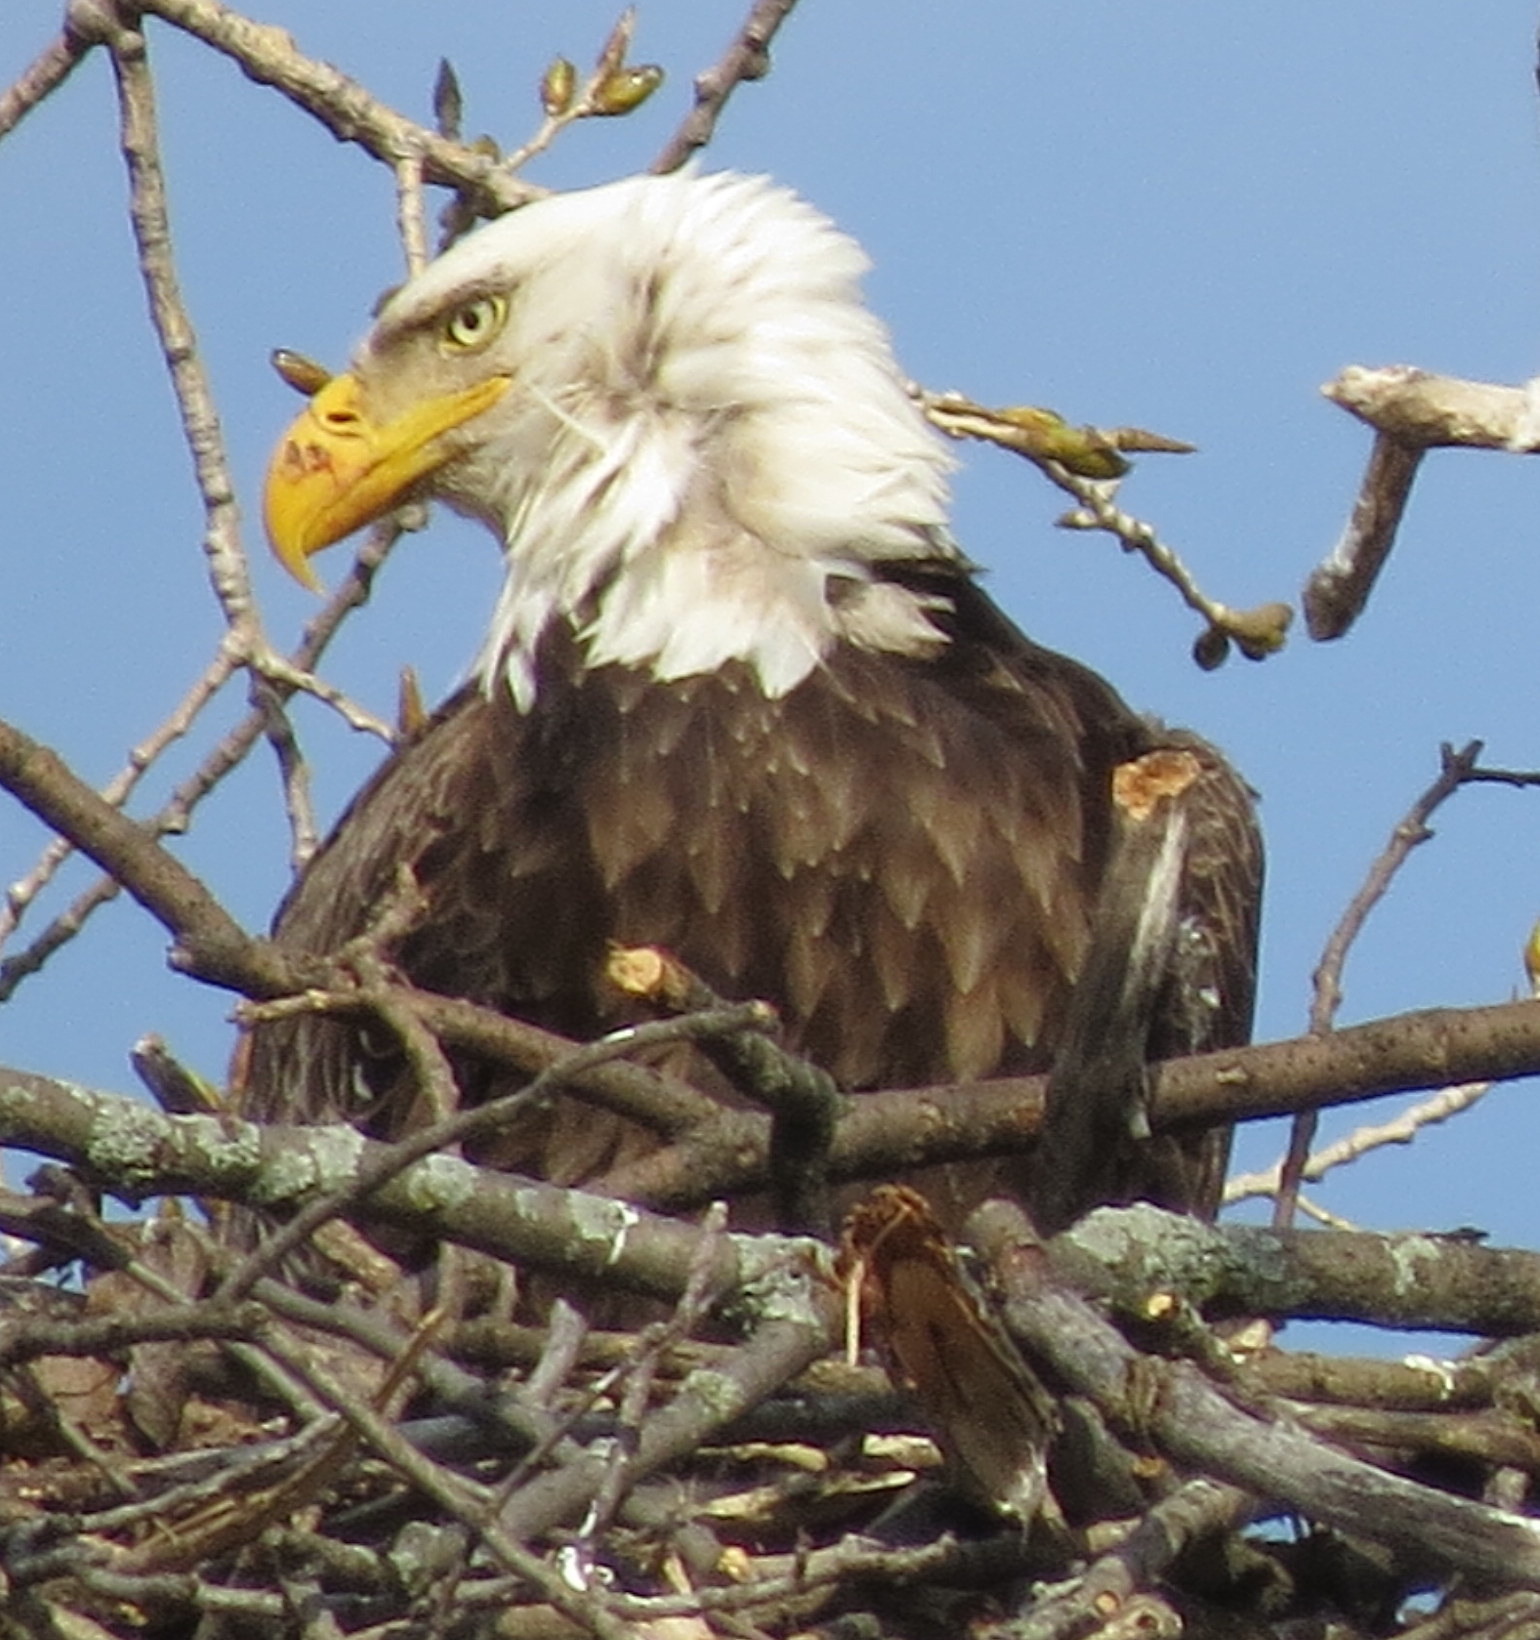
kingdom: Animalia
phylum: Chordata
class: Aves
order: Accipitriformes
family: Accipitridae
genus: Haliaeetus
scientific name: Haliaeetus leucocephalus
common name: Bald eagle
